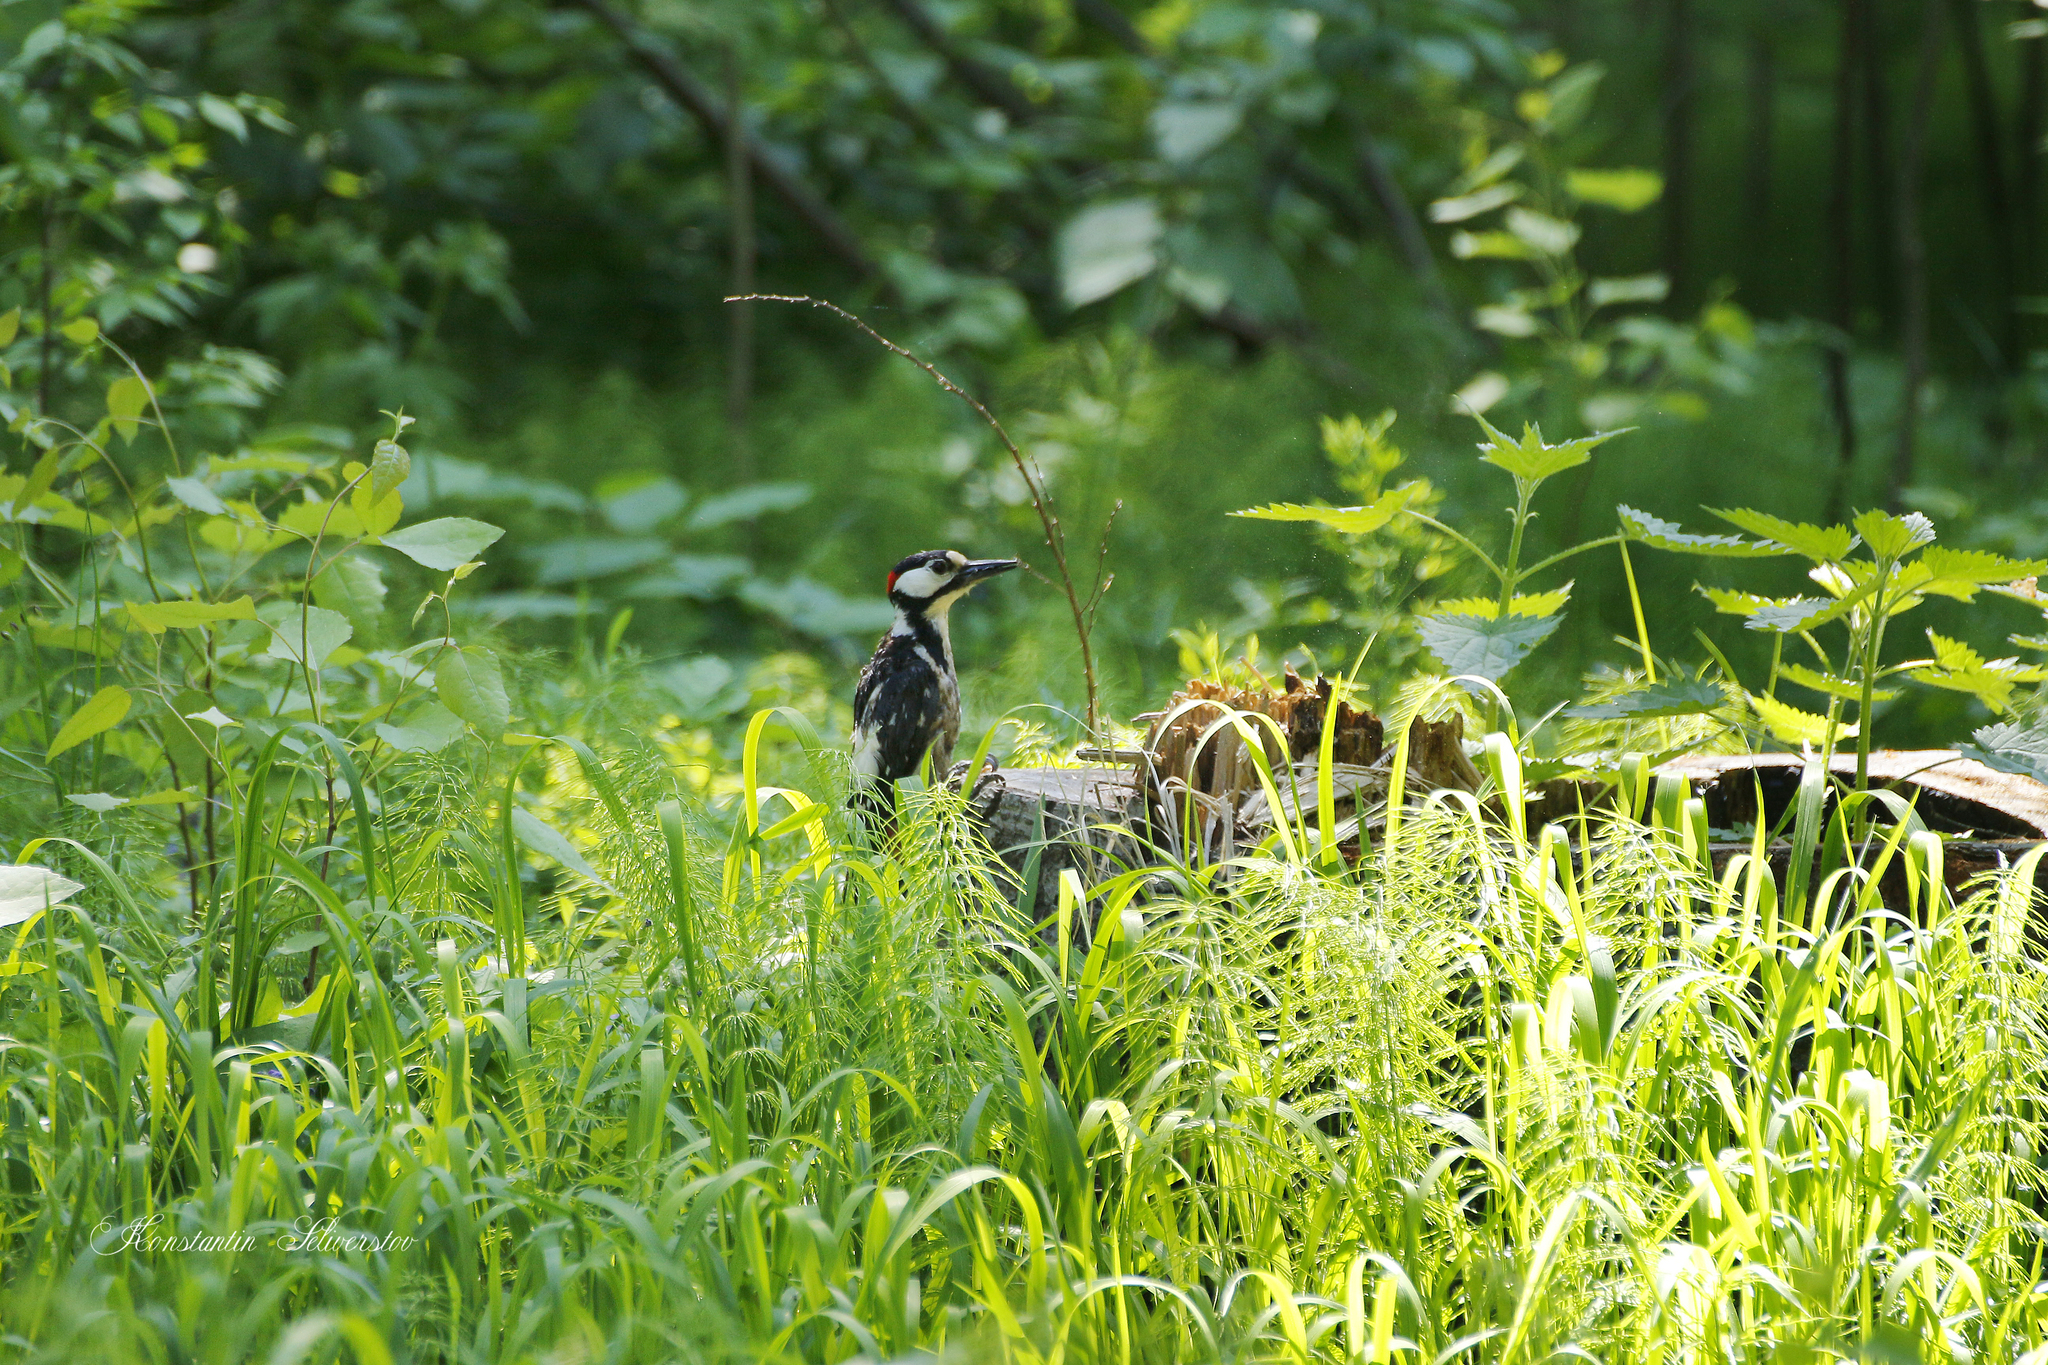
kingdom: Animalia
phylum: Chordata
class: Aves
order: Piciformes
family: Picidae
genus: Dendrocopos
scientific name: Dendrocopos major
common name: Great spotted woodpecker
